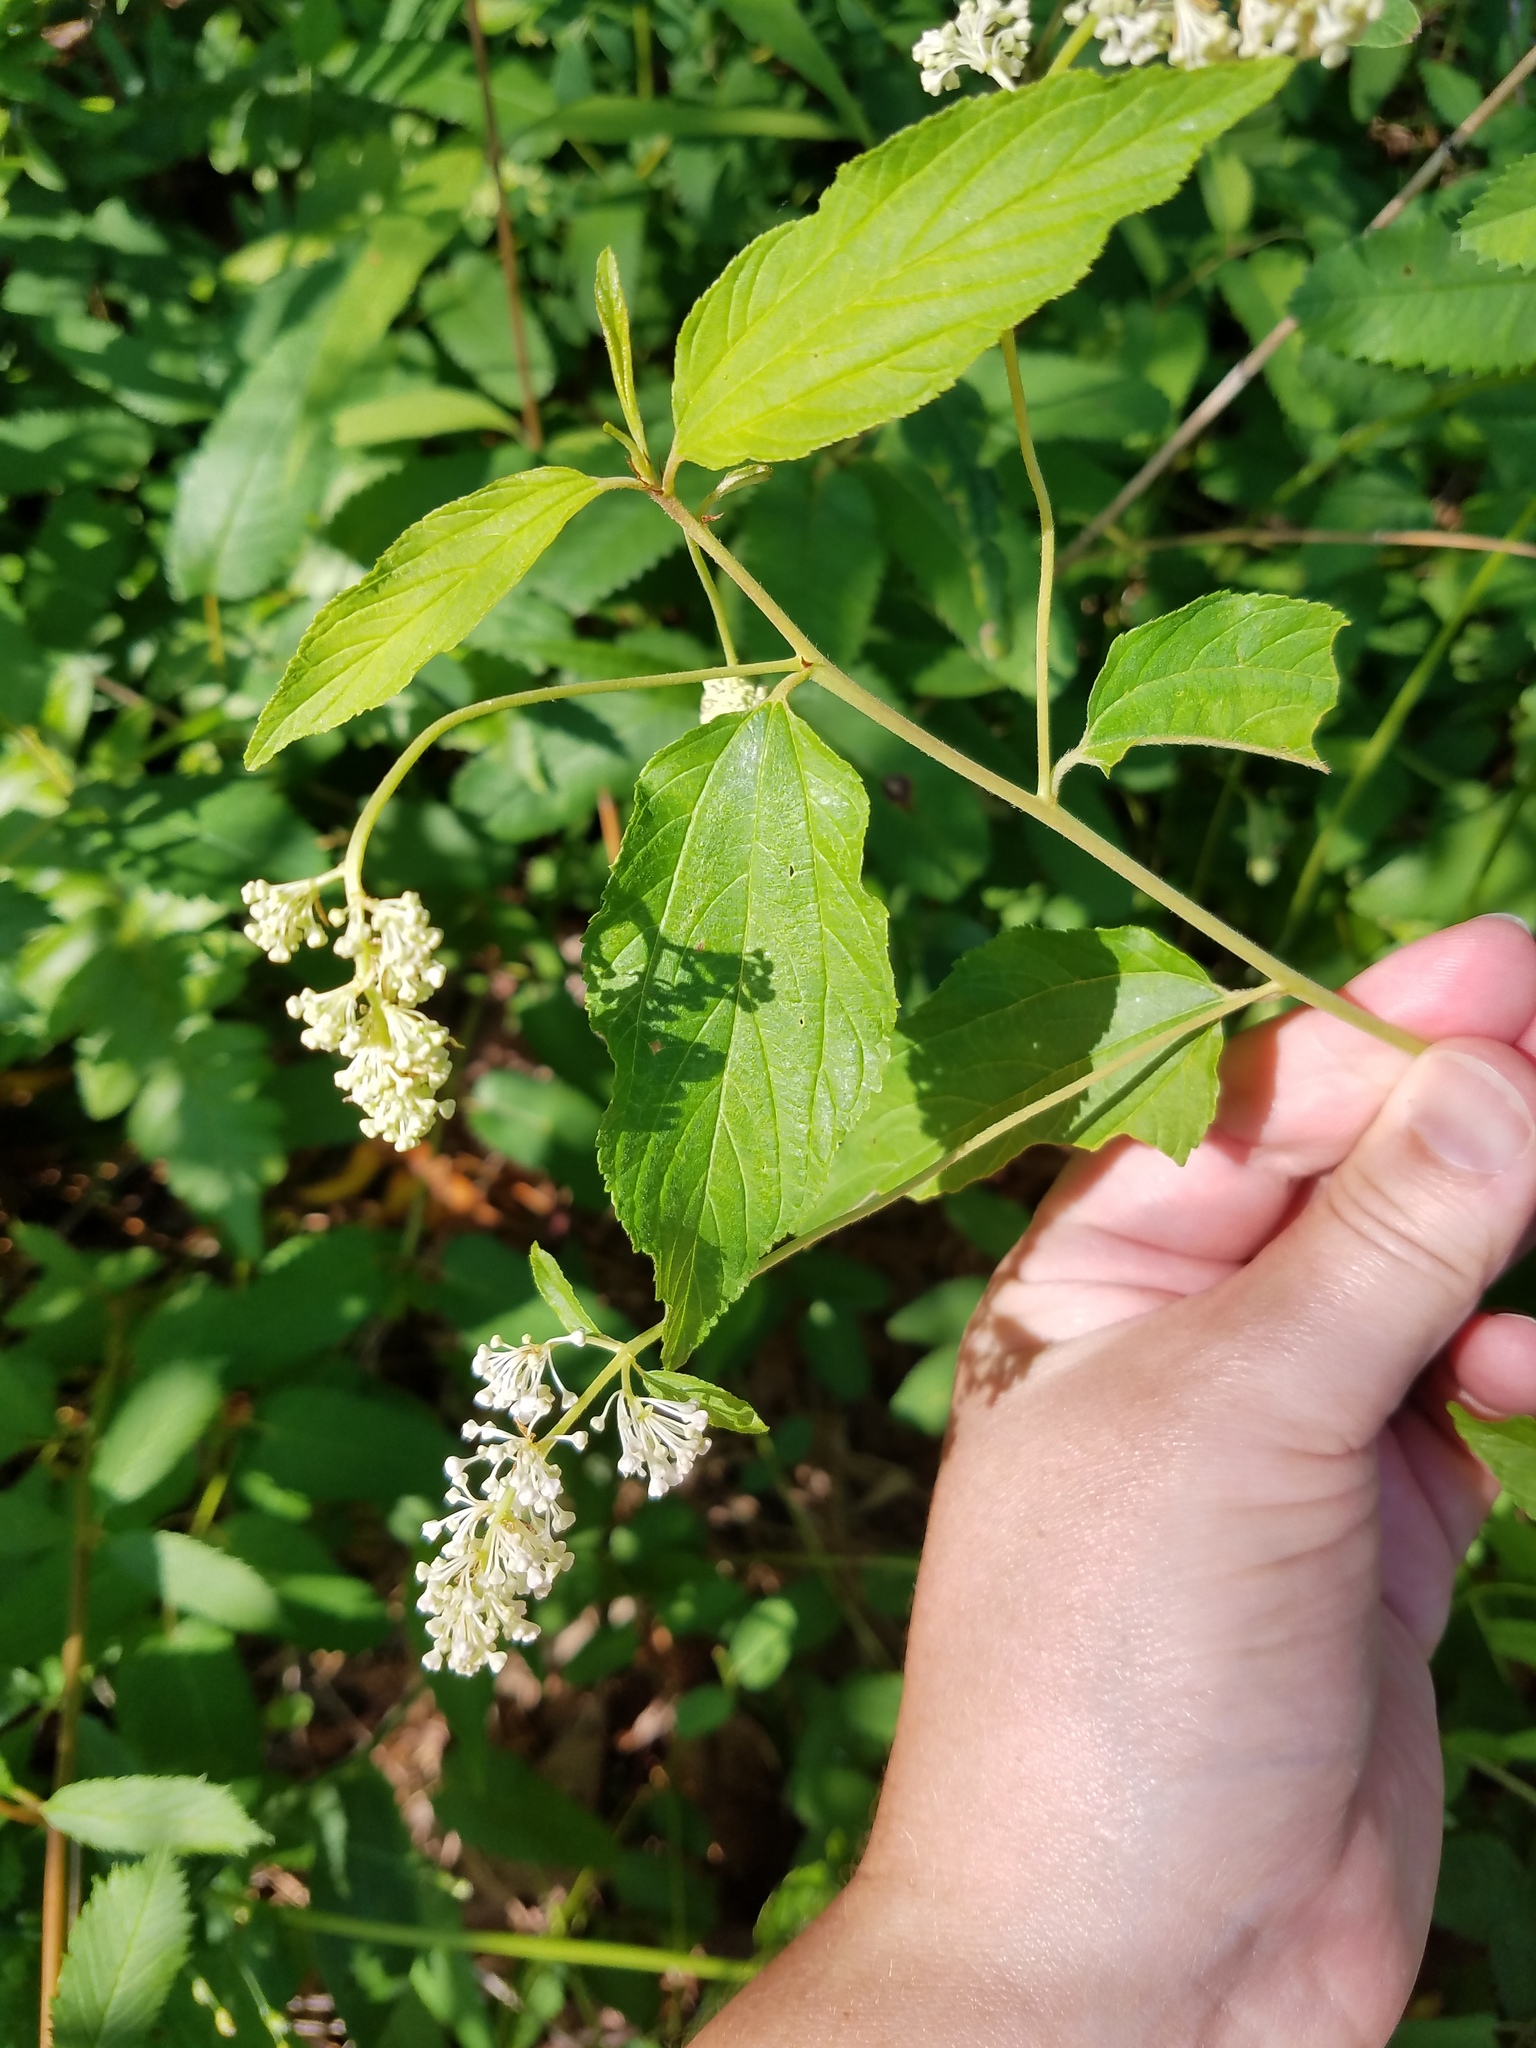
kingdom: Plantae
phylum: Tracheophyta
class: Magnoliopsida
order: Rosales
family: Rhamnaceae
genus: Ceanothus
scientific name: Ceanothus americanus
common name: Redroot
